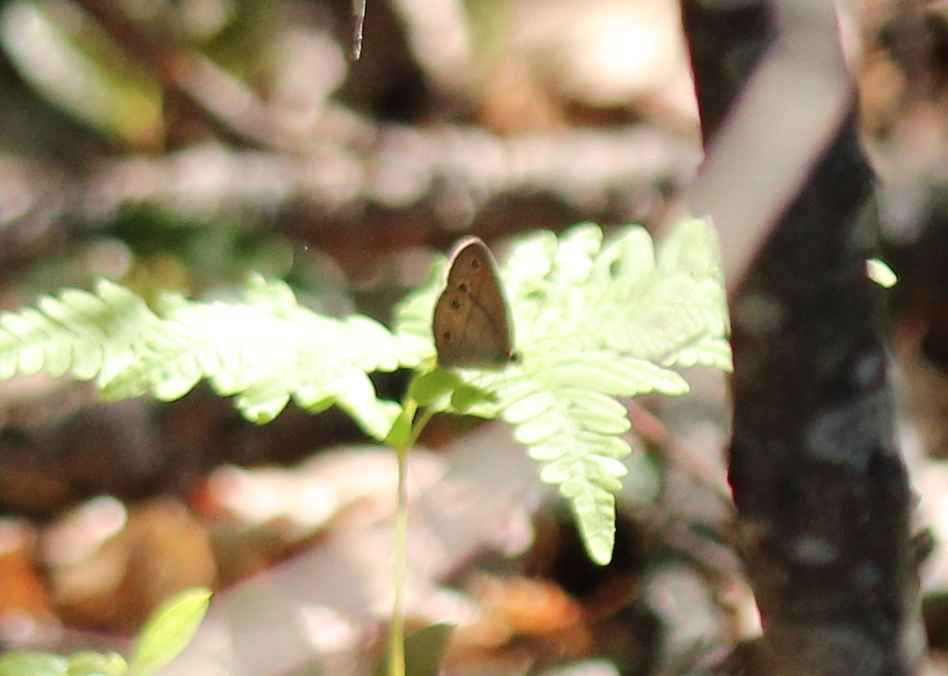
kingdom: Animalia
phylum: Arthropoda
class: Insecta
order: Lepidoptera
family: Nymphalidae
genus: Euptychia
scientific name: Euptychia cymela
